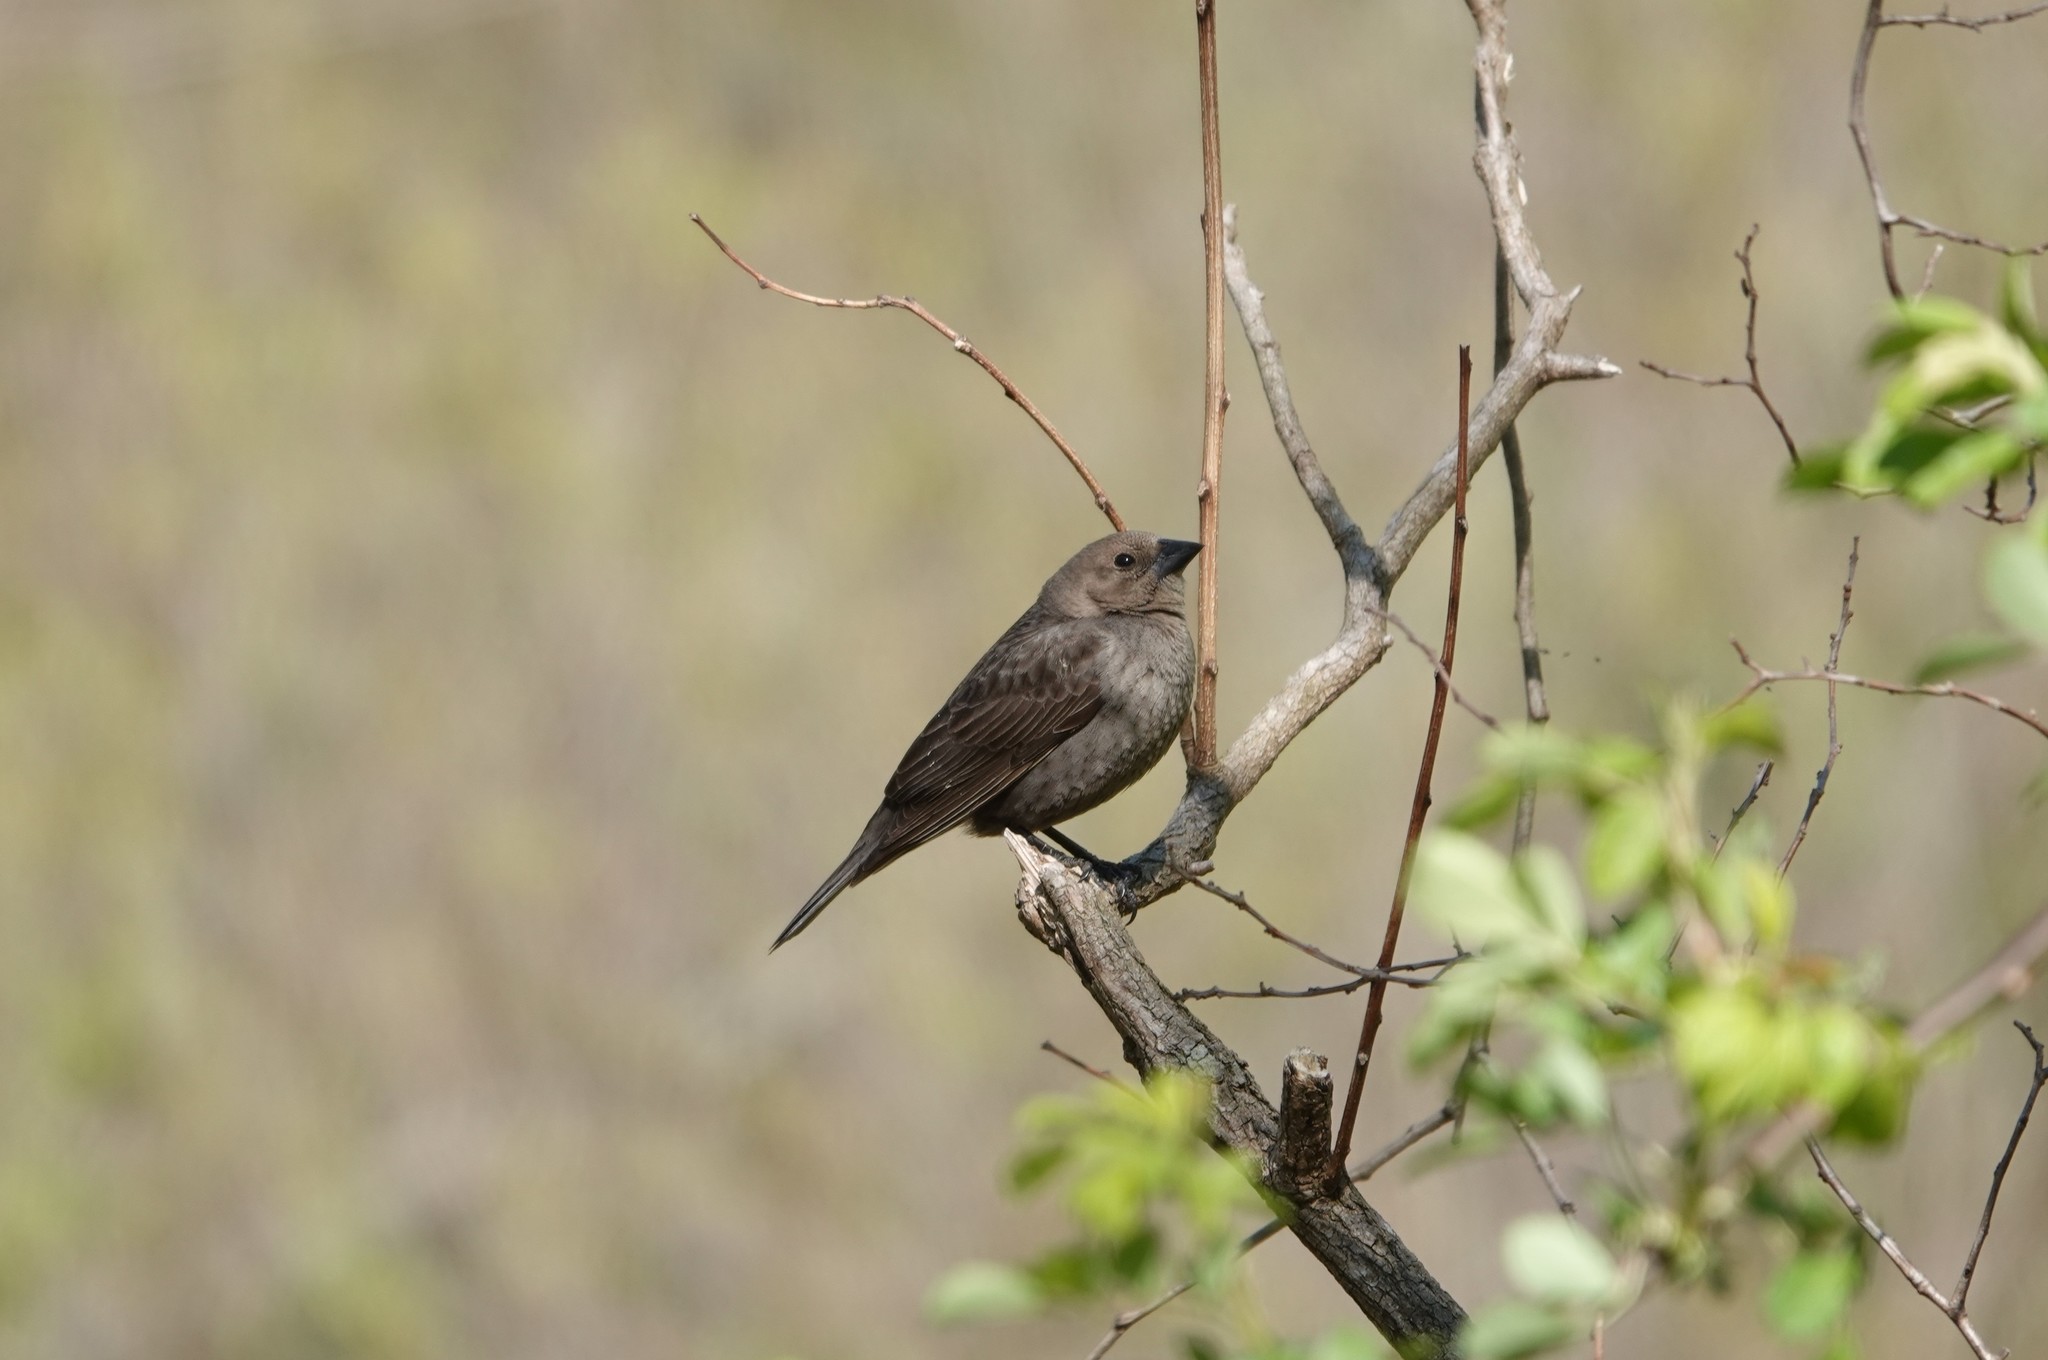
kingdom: Animalia
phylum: Chordata
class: Aves
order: Passeriformes
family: Icteridae
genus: Molothrus
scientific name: Molothrus ater
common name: Brown-headed cowbird
